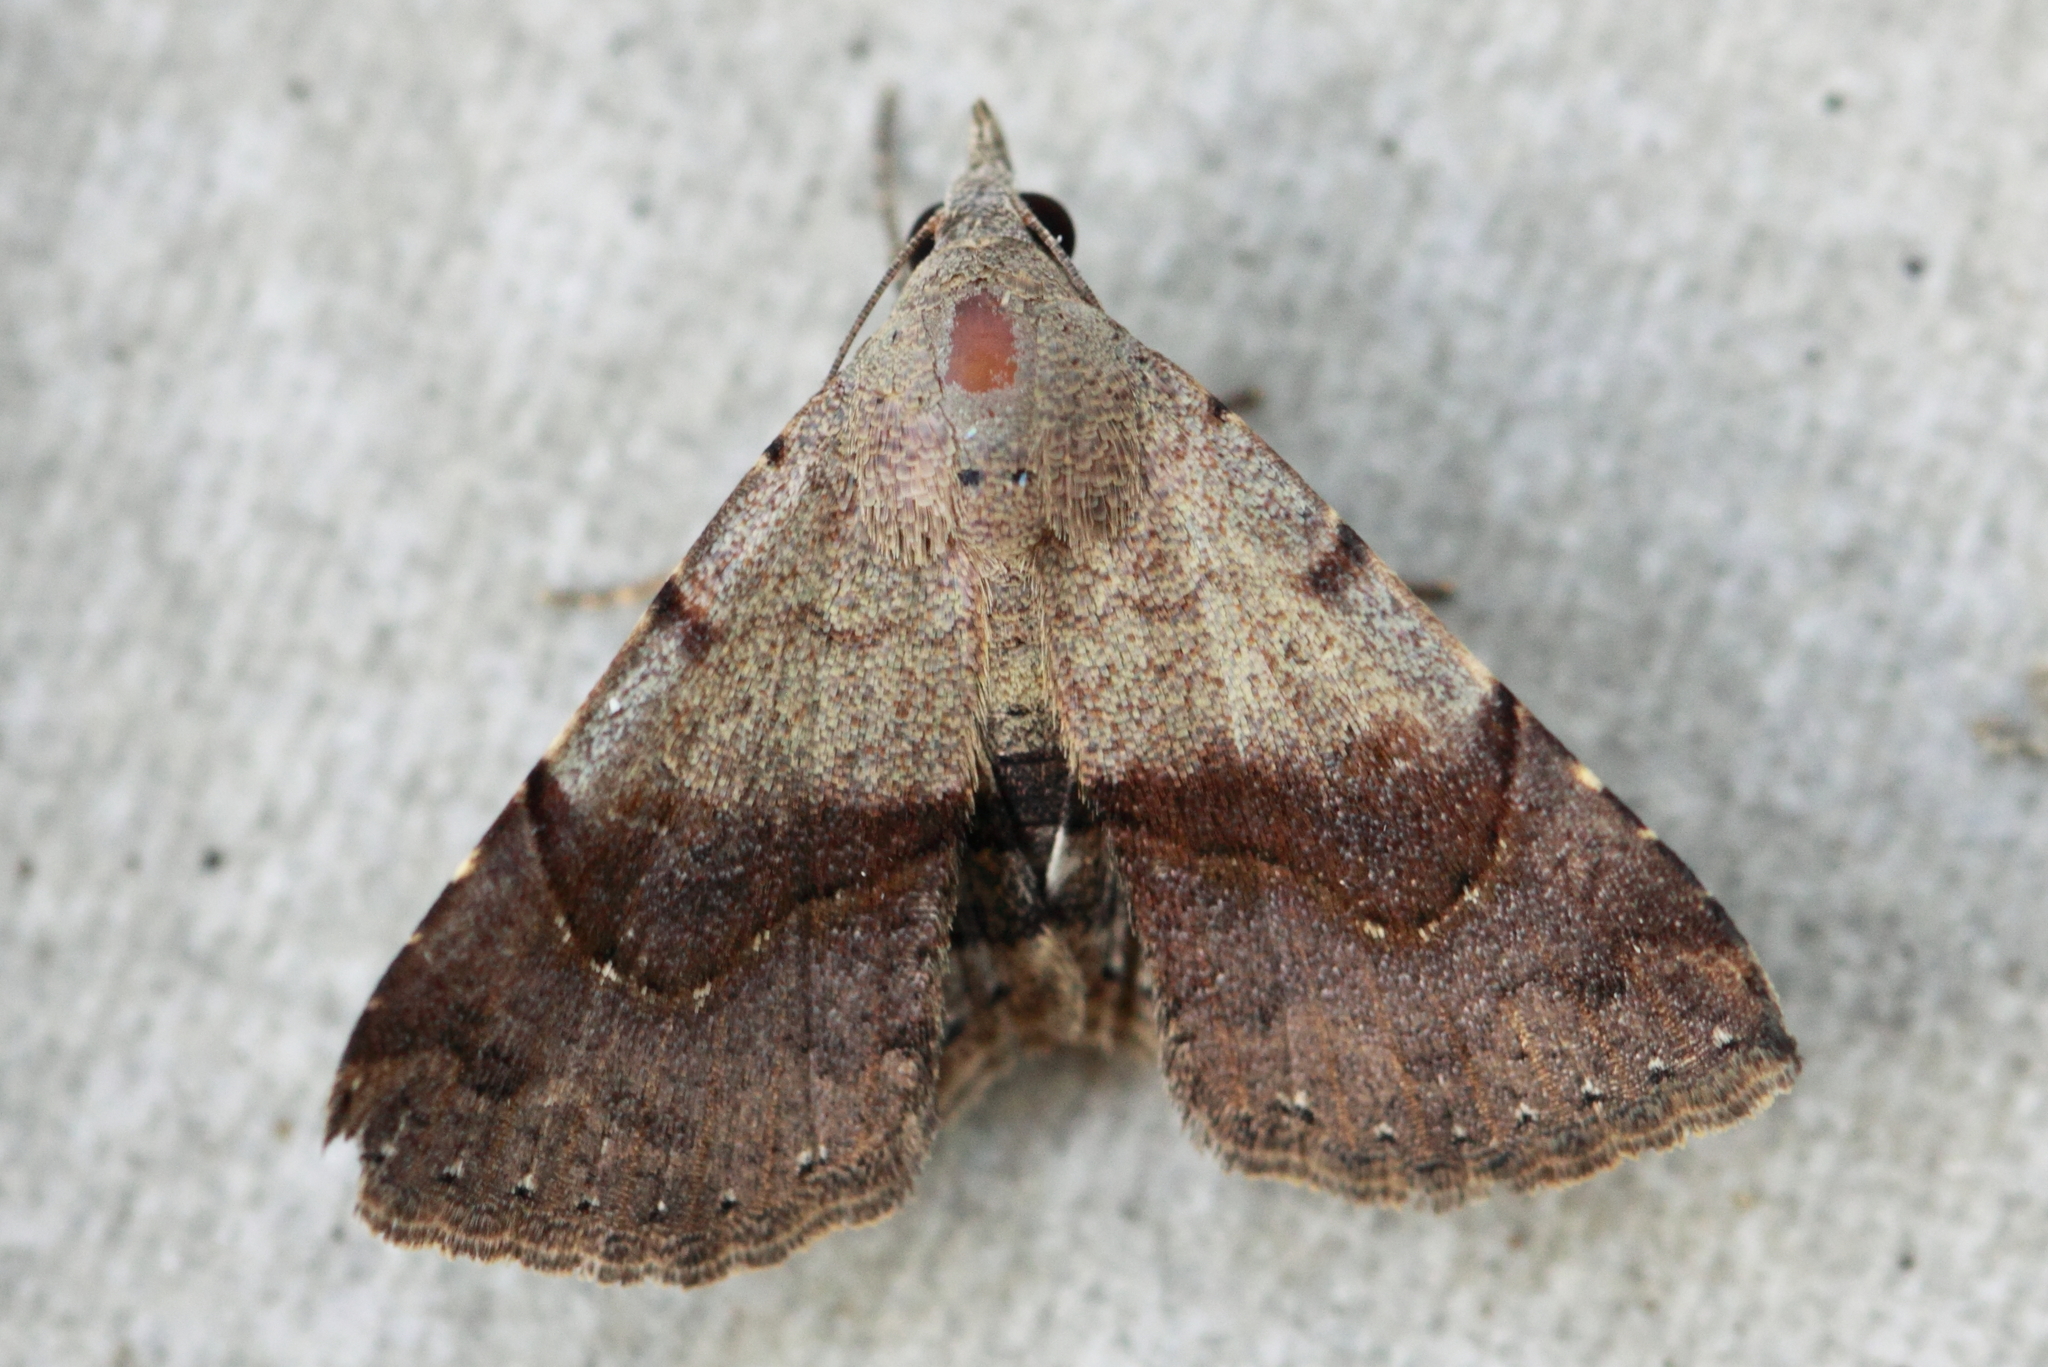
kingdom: Animalia
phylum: Arthropoda
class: Insecta
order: Lepidoptera
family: Erebidae
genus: Rhesalides
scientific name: Rhesalides curvata
